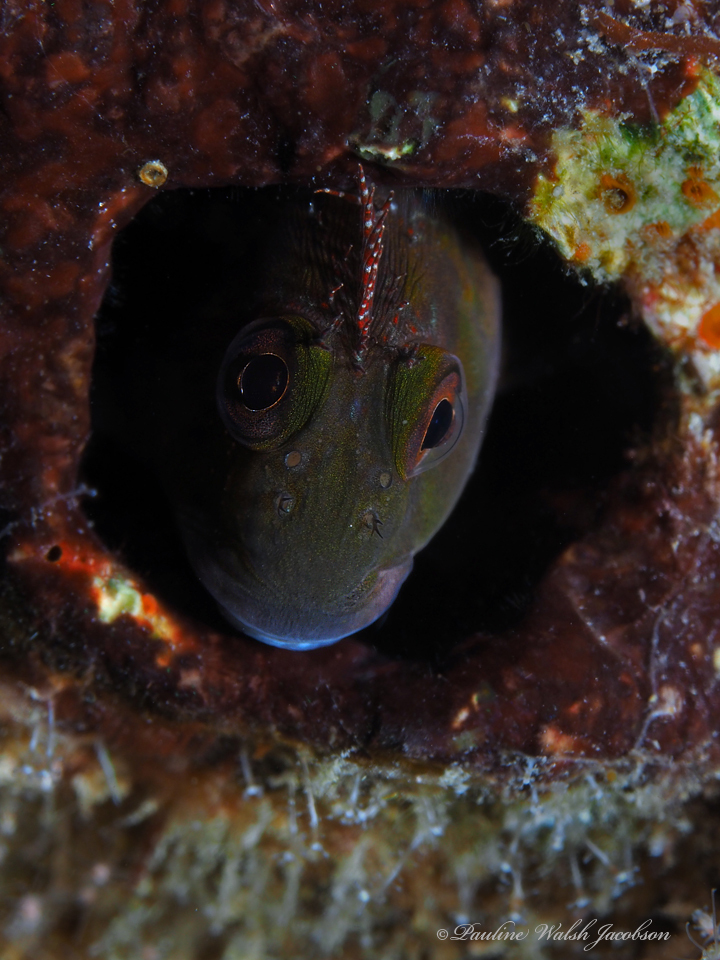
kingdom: Animalia
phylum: Chordata
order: Perciformes
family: Blenniidae
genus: Scartella
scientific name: Scartella cristata
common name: Molly miller
